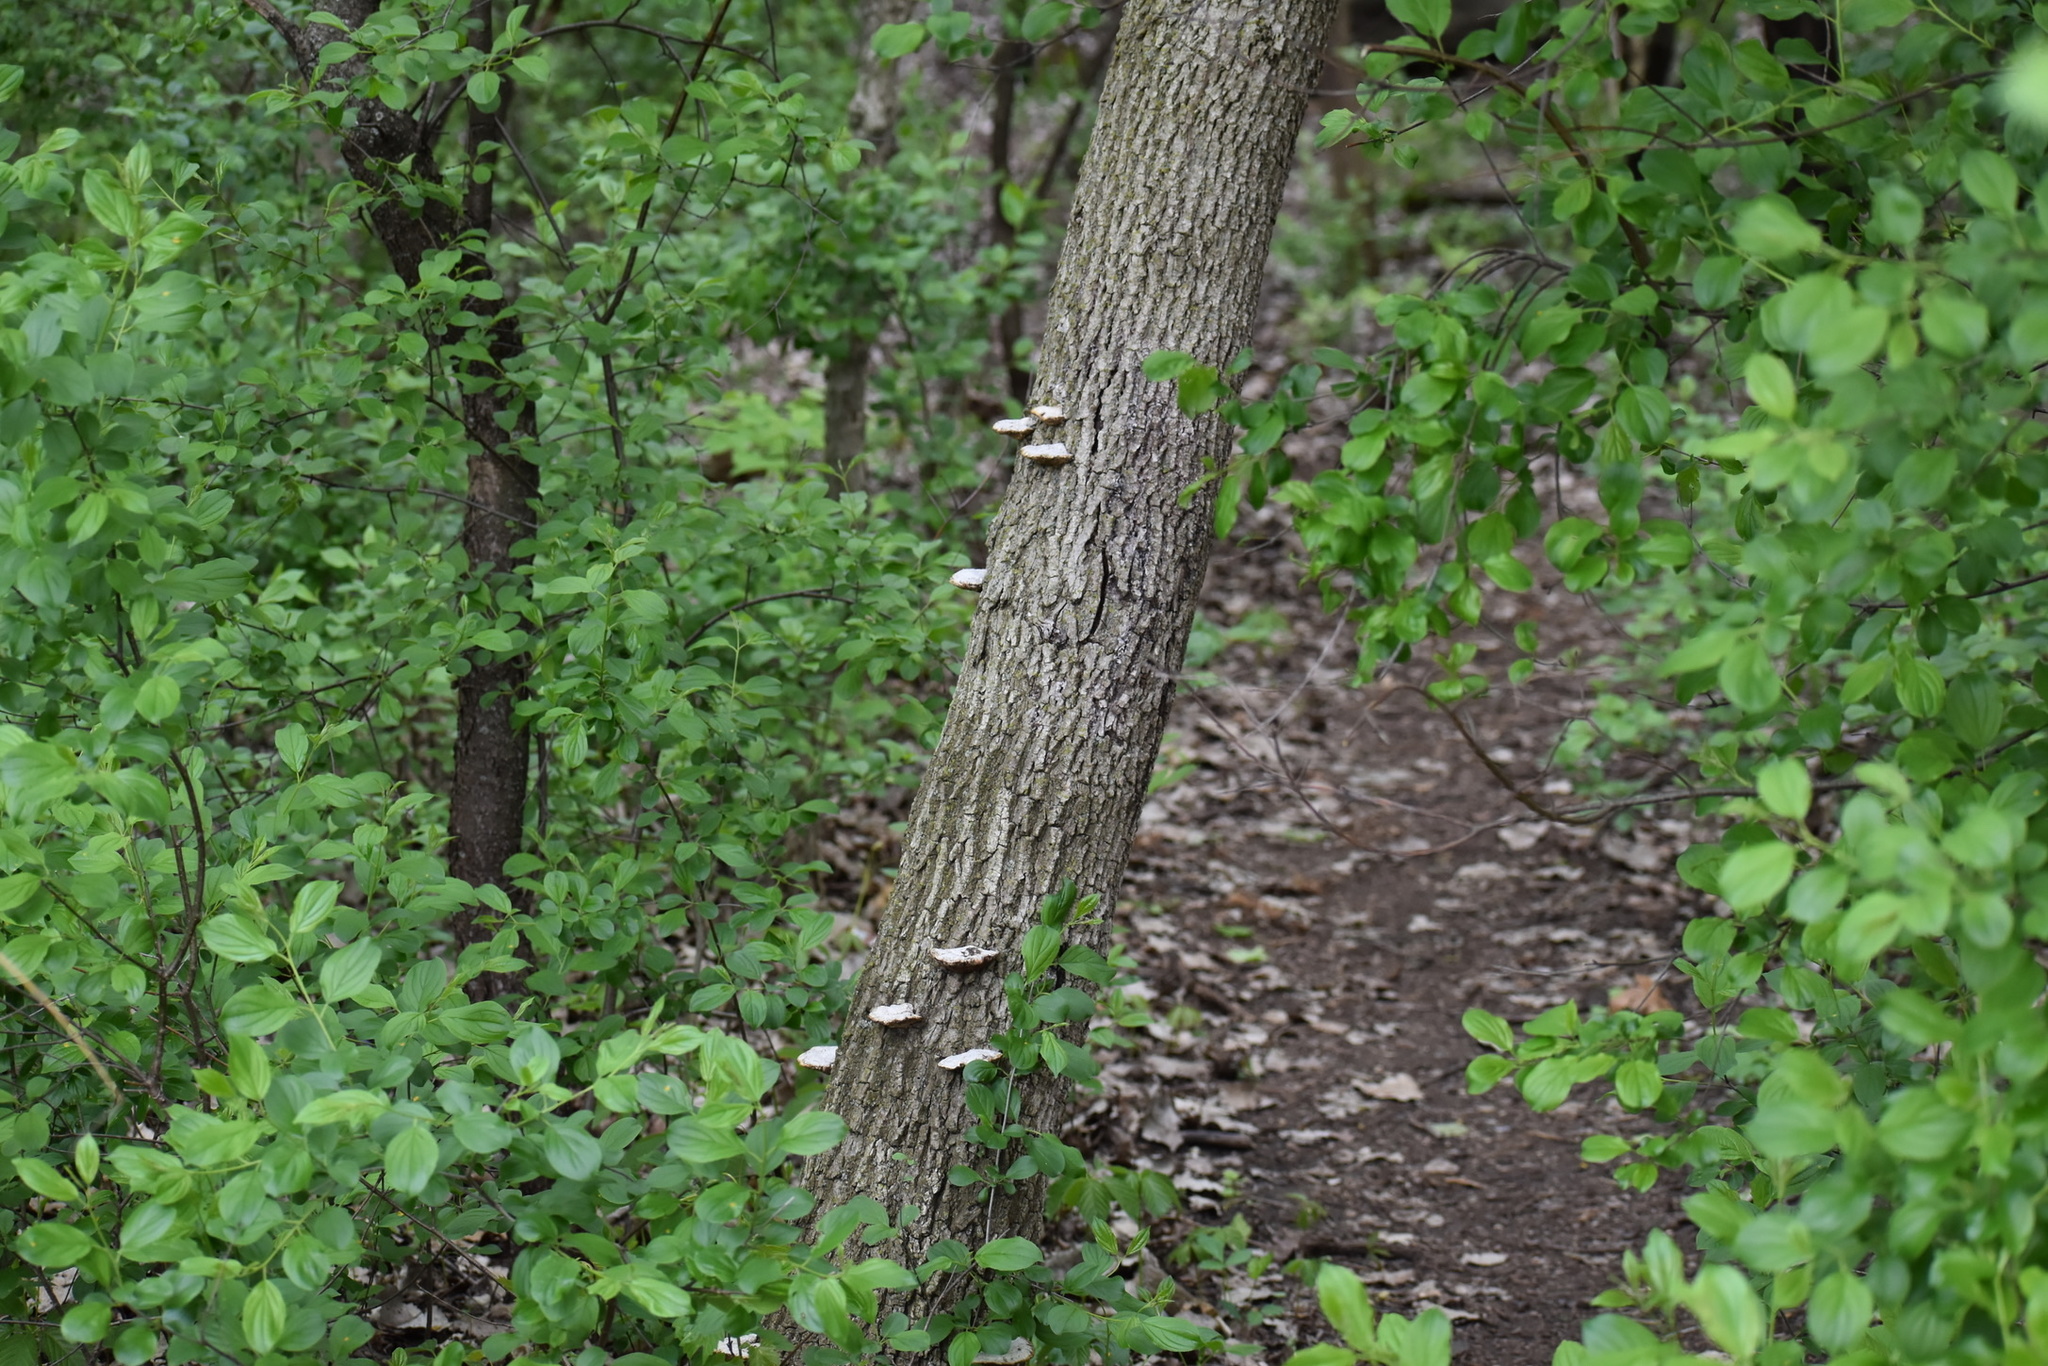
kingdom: Fungi
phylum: Basidiomycota
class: Agaricomycetes
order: Polyporales
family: Polyporaceae
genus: Daedaleopsis
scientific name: Daedaleopsis confragosa
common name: Blushing bracket
